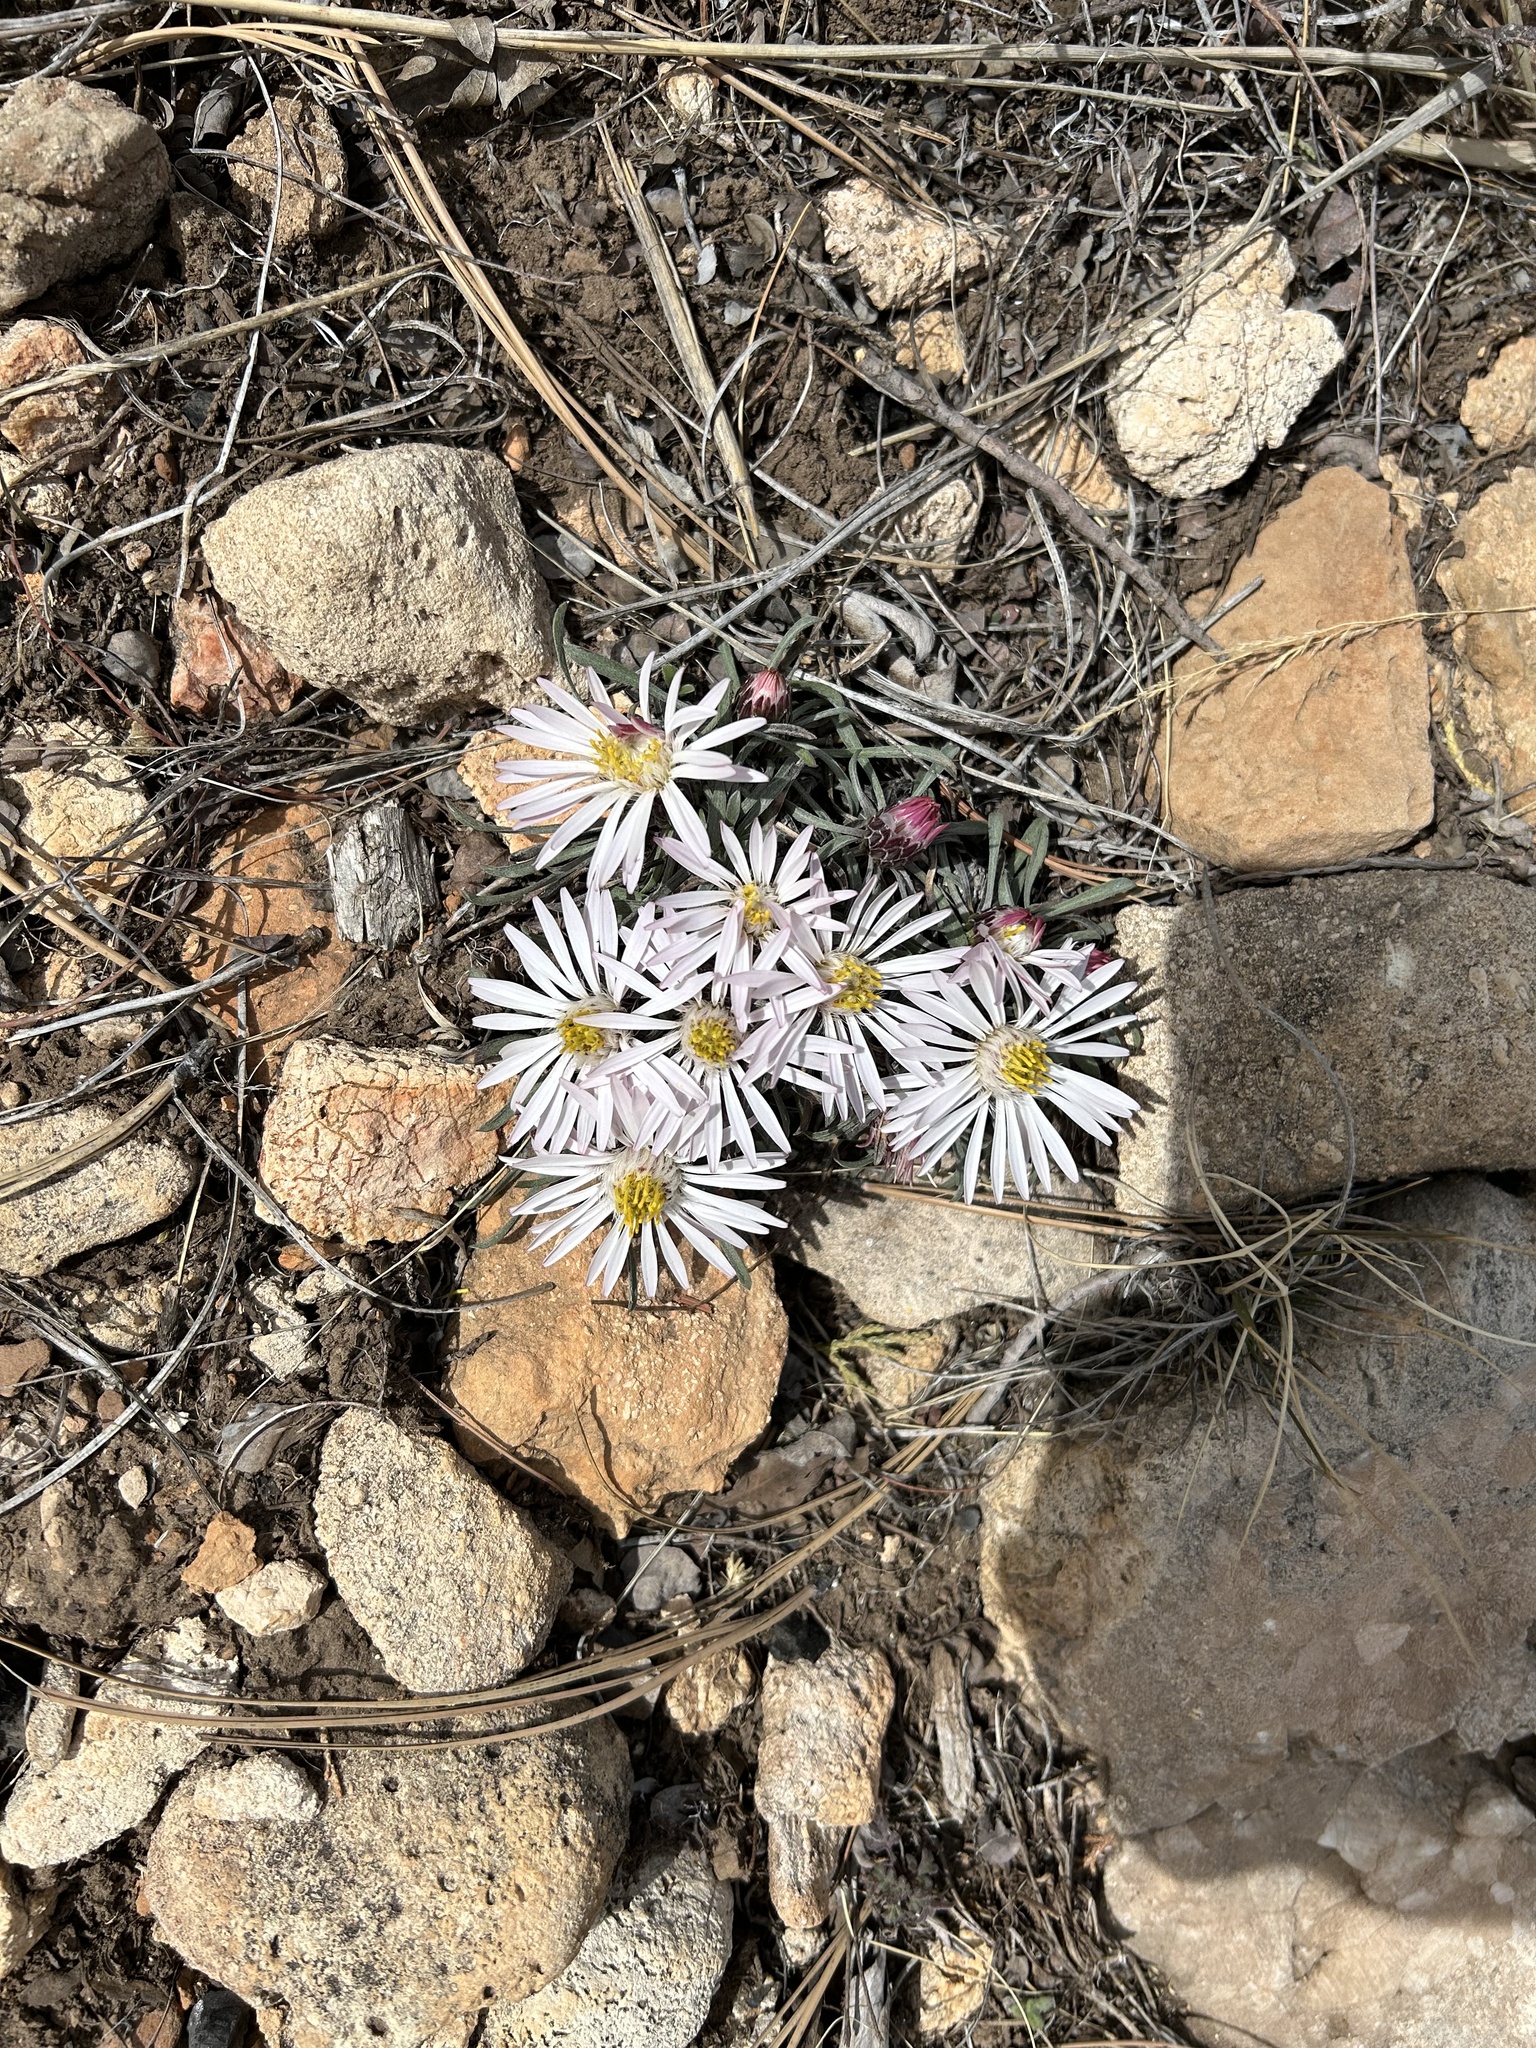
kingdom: Plantae
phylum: Tracheophyta
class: Magnoliopsida
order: Asterales
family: Asteraceae
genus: Townsendia
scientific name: Townsendia exscapa
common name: Dwarf townsendia
